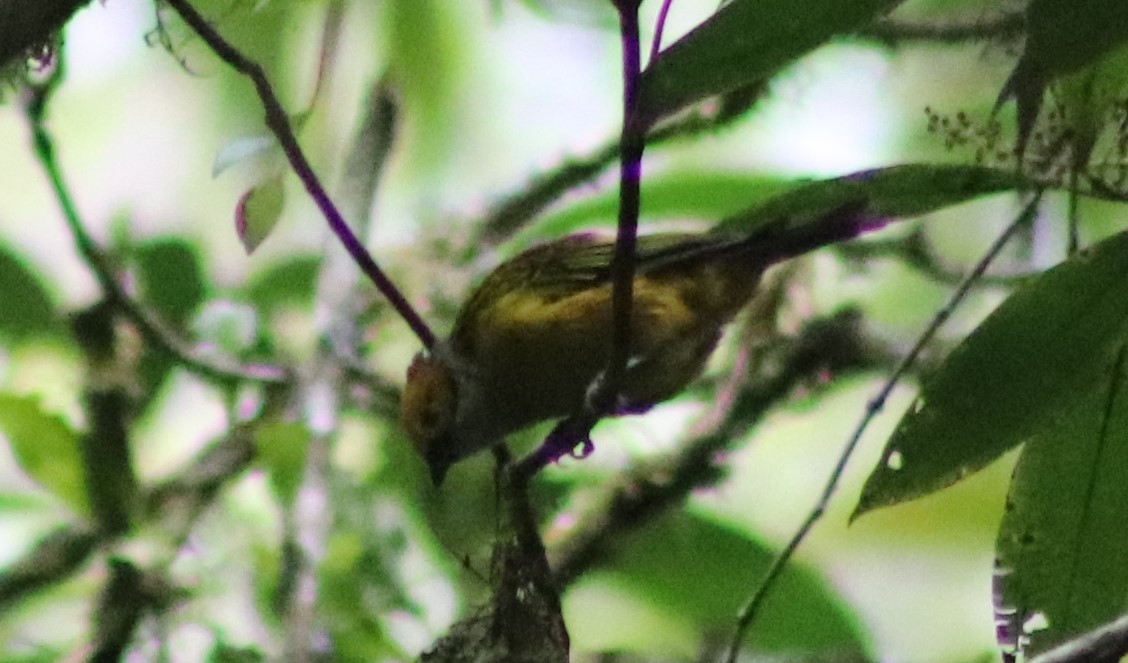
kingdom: Animalia
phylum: Chordata
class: Aves
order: Passeriformes
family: Thraupidae
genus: Tangara
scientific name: Tangara icterocephala
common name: Silver-throated tanager
